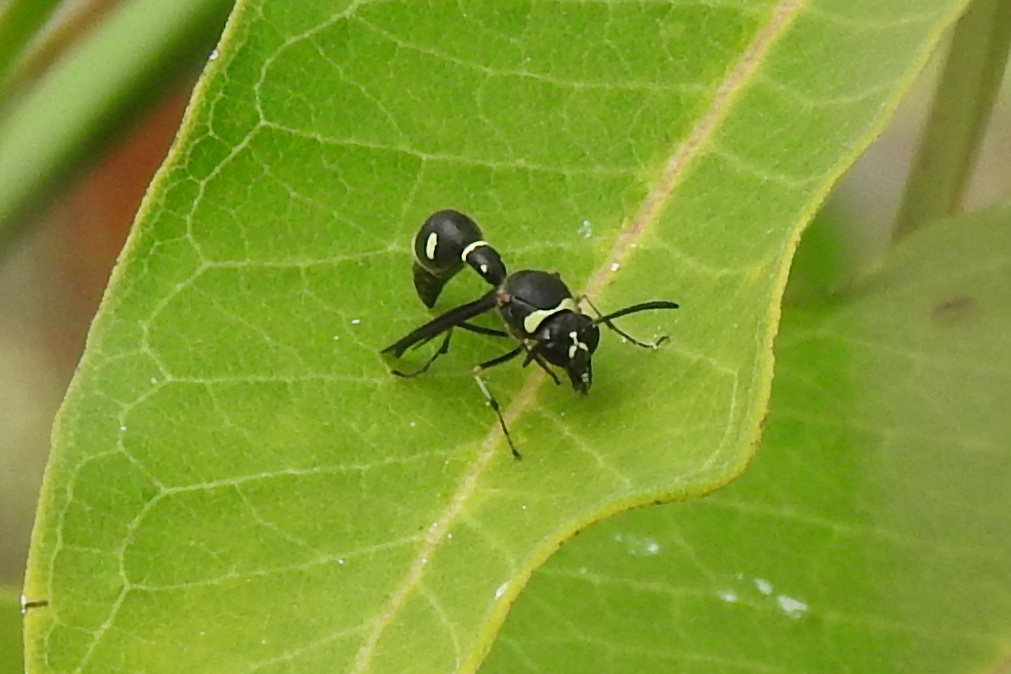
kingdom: Animalia
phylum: Arthropoda
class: Insecta
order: Hymenoptera
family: Vespidae
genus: Eumenes
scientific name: Eumenes fraternus
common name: Fraternal potter wasp
